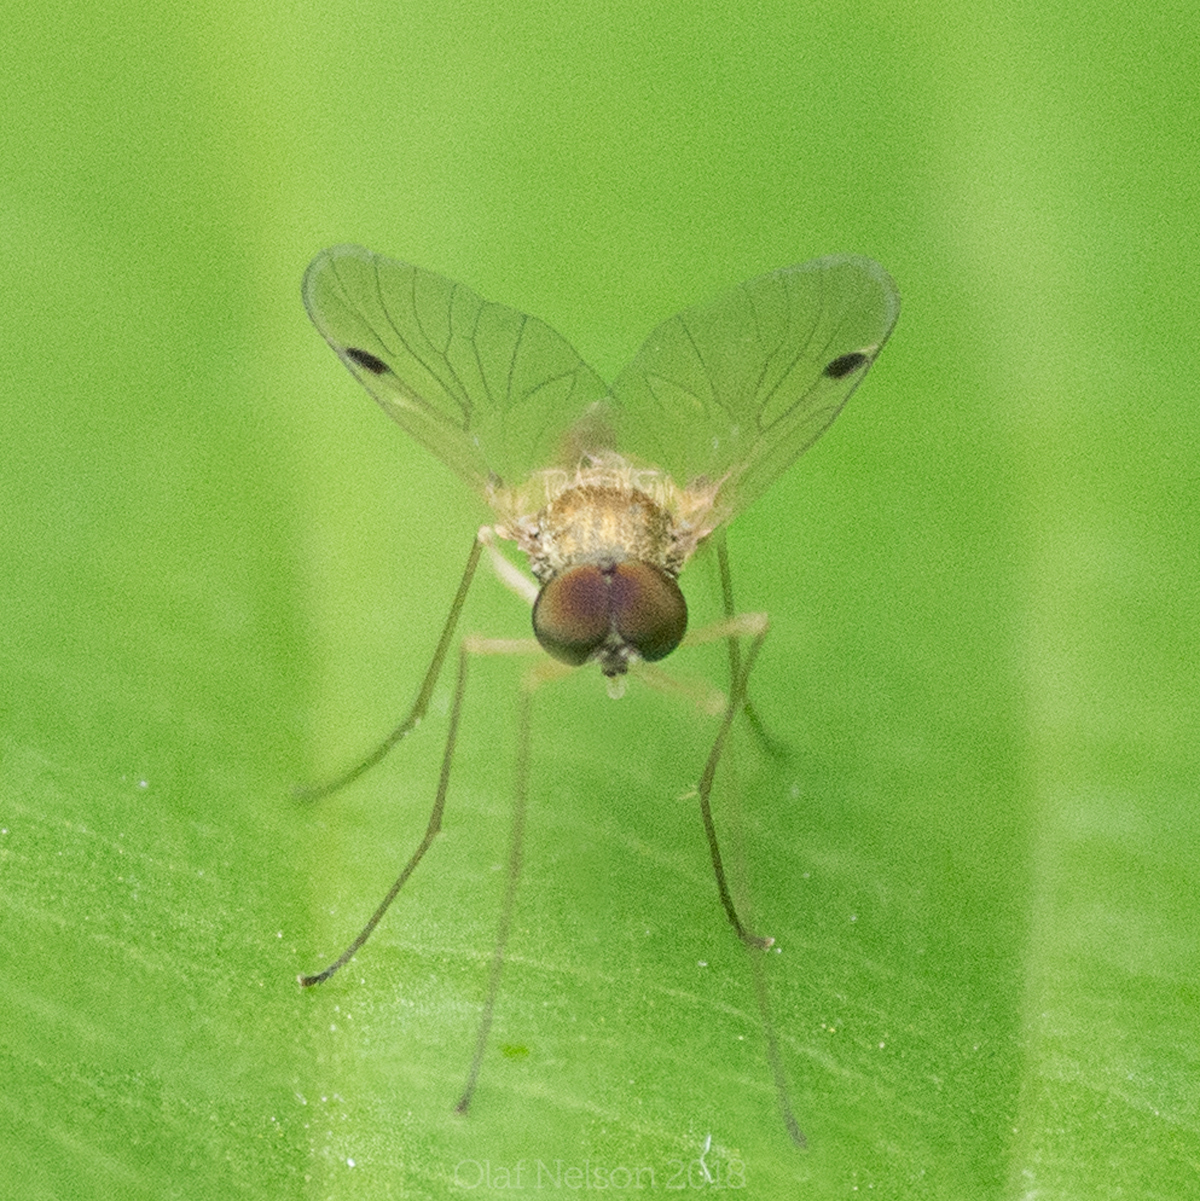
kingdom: Animalia
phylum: Arthropoda
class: Insecta
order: Diptera
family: Rhagionidae
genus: Chrysopilus
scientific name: Chrysopilus modestus
